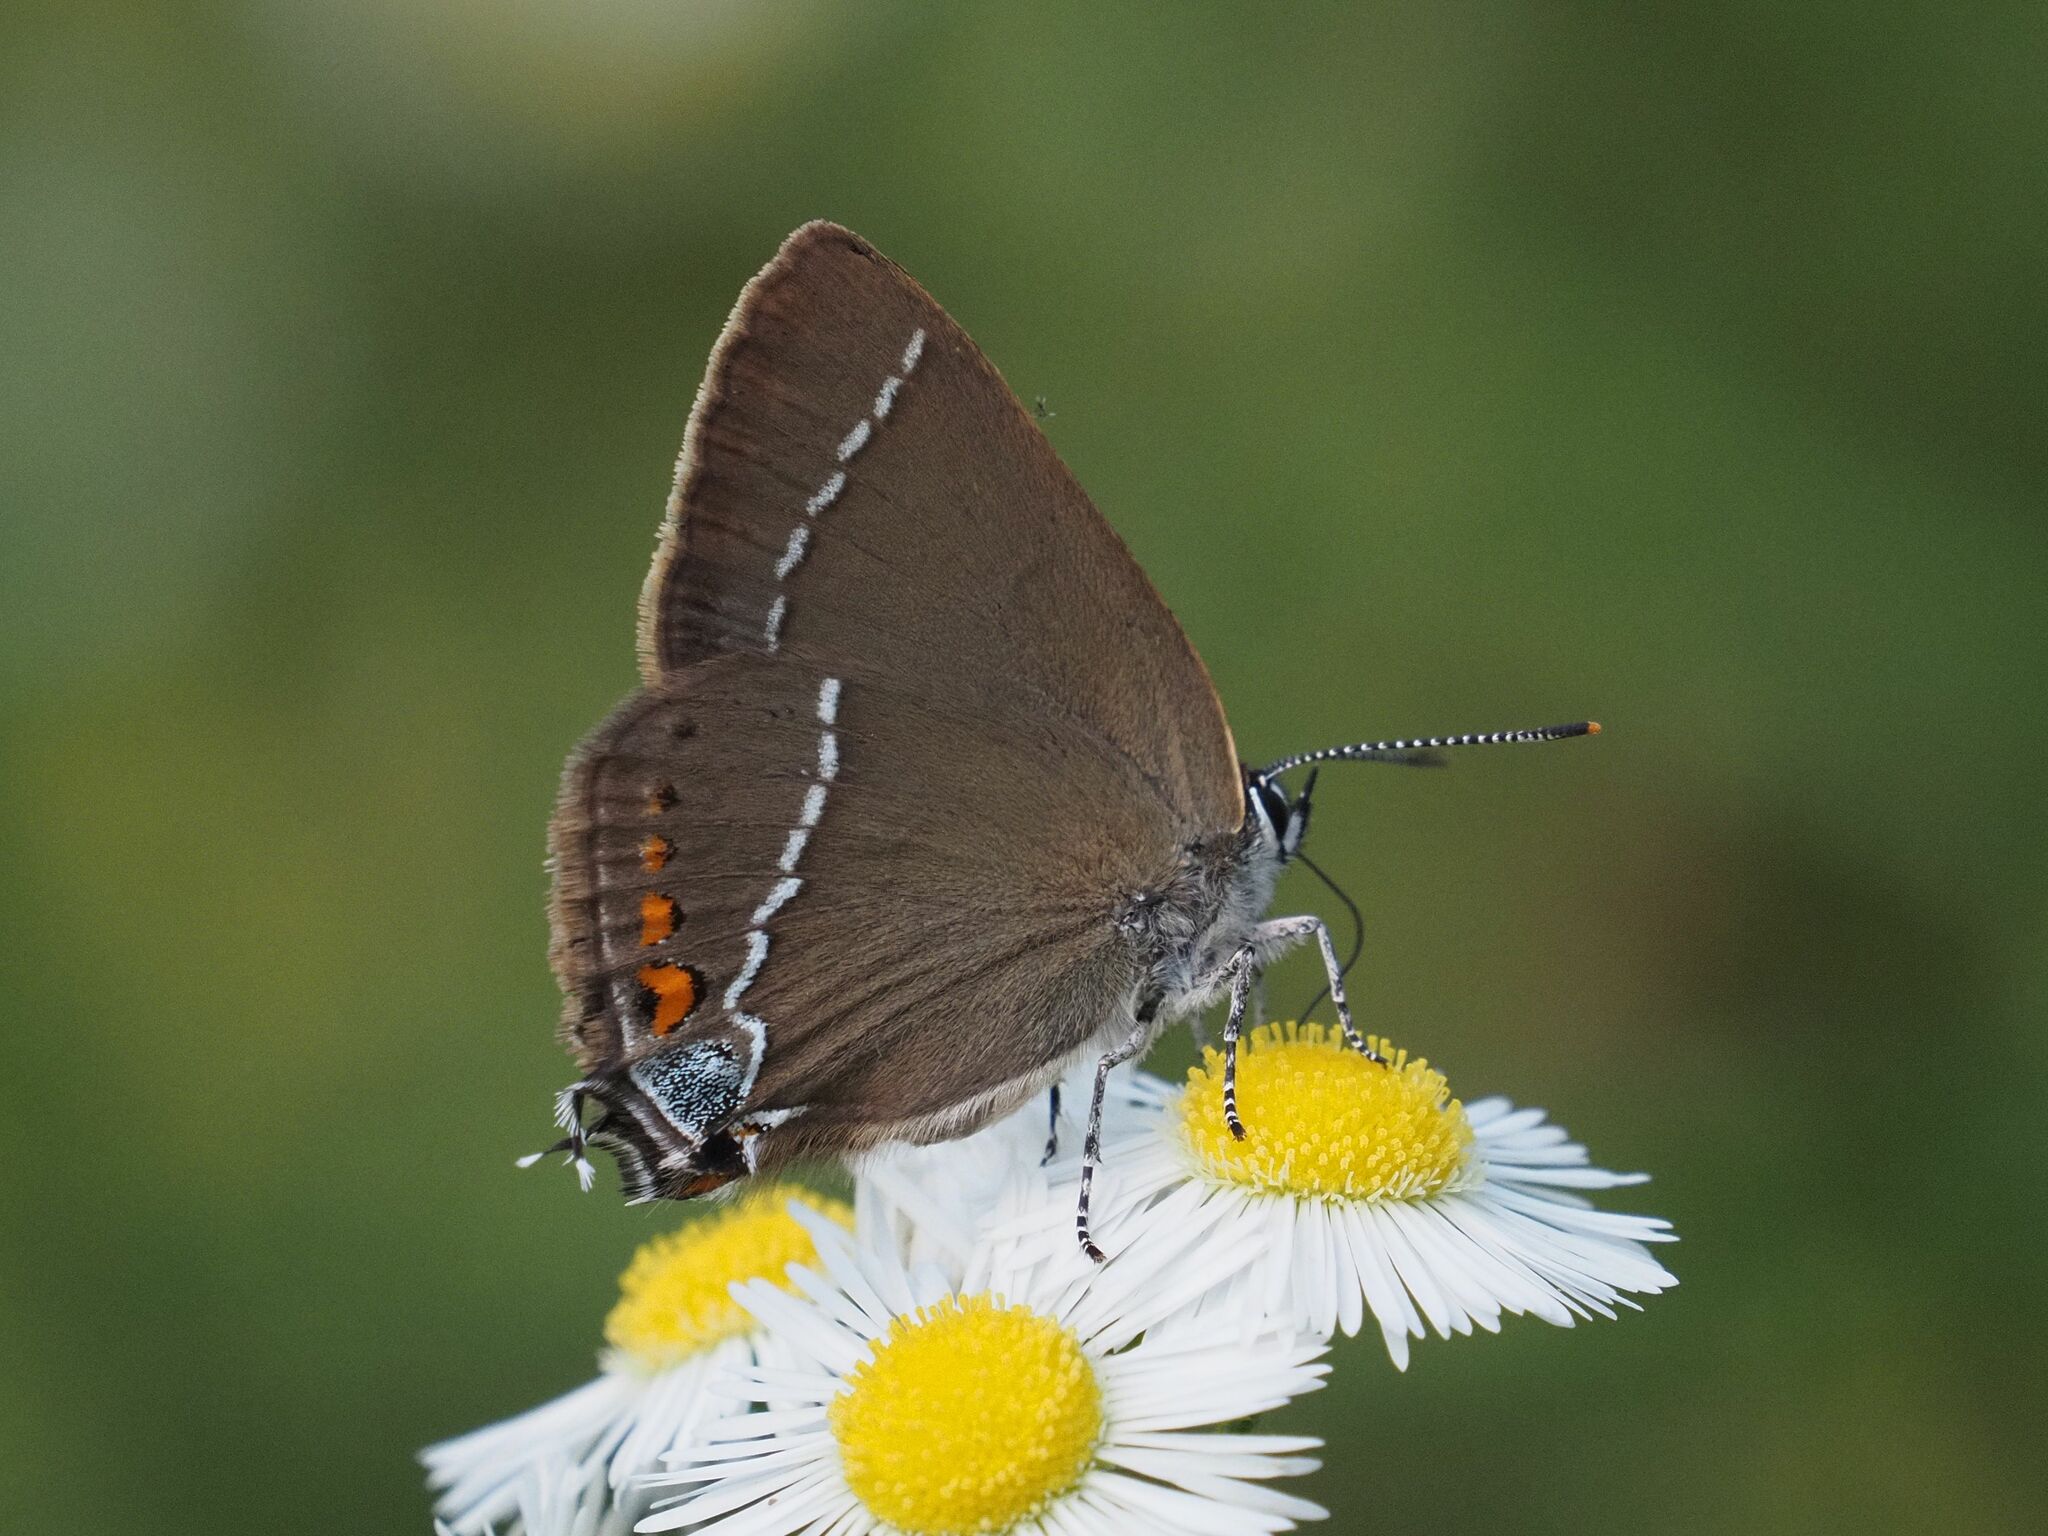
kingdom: Animalia
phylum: Arthropoda
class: Insecta
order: Lepidoptera
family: Lycaenidae
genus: Tuttiola
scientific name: Tuttiola spini
